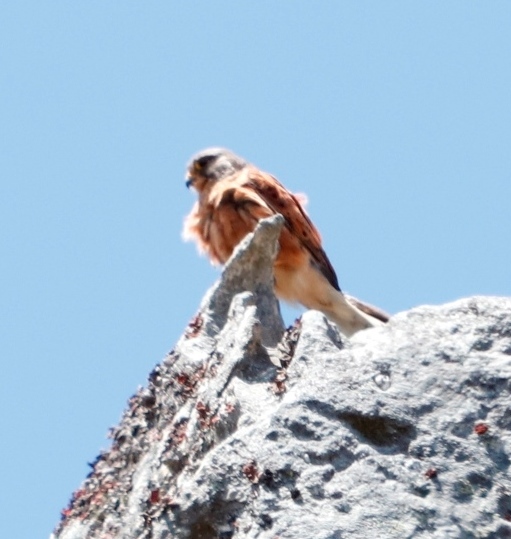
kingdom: Animalia
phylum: Chordata
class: Aves
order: Falconiformes
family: Falconidae
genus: Falco
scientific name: Falco rupicolus
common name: Rock kestrel
